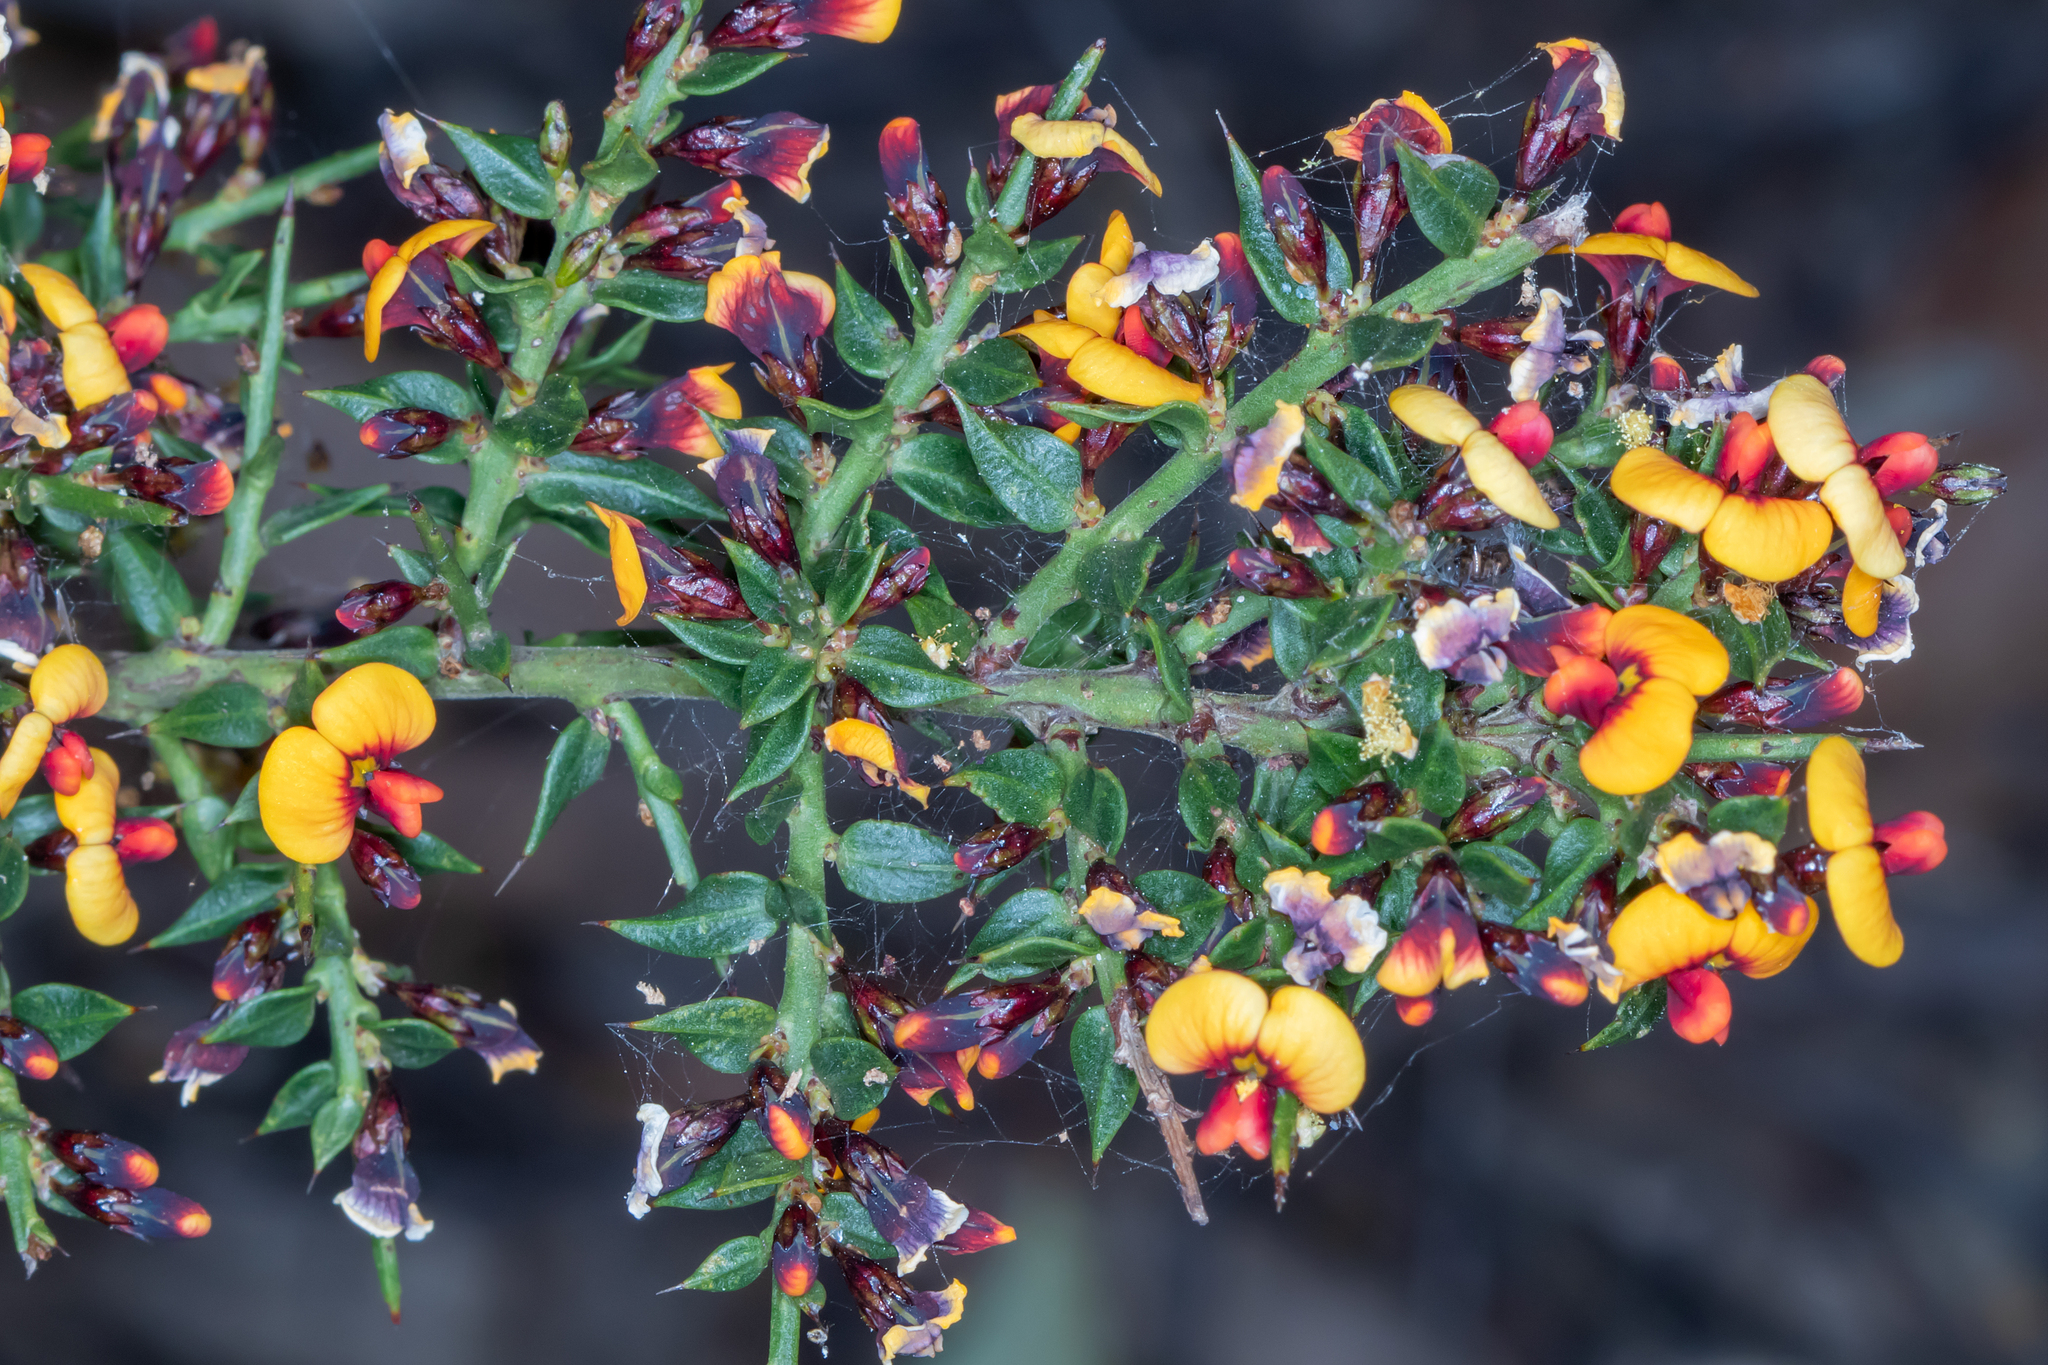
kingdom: Plantae
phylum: Tracheophyta
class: Magnoliopsida
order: Fabales
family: Fabaceae
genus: Daviesia
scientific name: Daviesia ulicifolia
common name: Gorse bitter-pea
